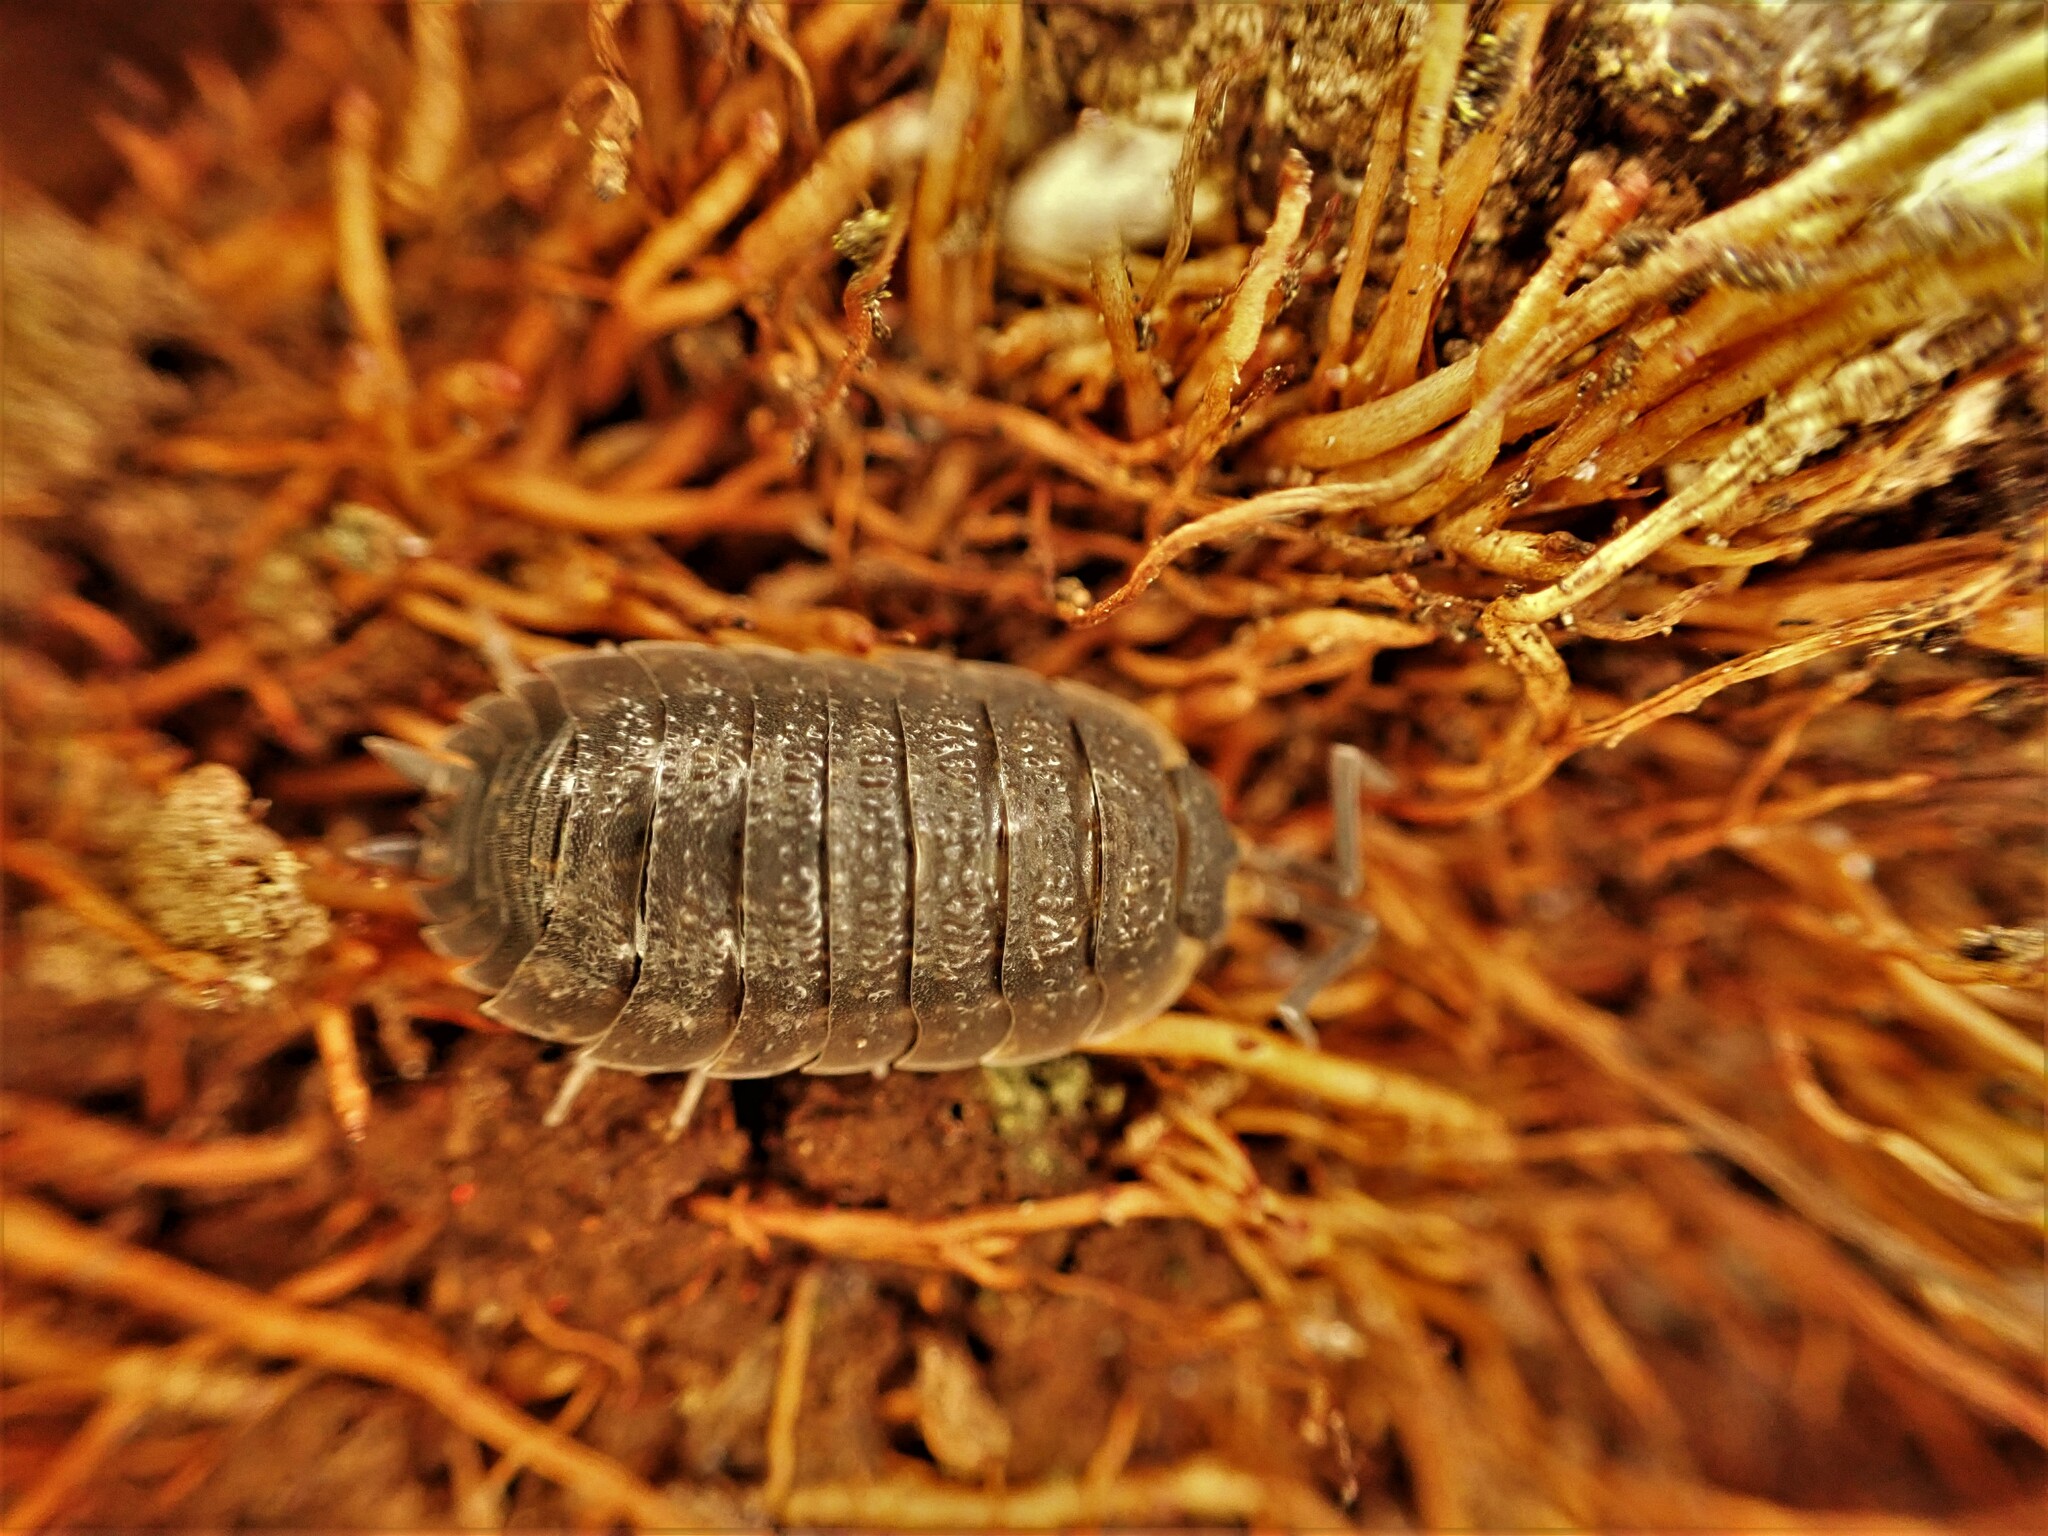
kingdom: Animalia
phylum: Arthropoda
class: Malacostraca
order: Isopoda
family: Porcellionidae
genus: Porcellio
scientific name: Porcellio scaber
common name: Common rough woodlouse
